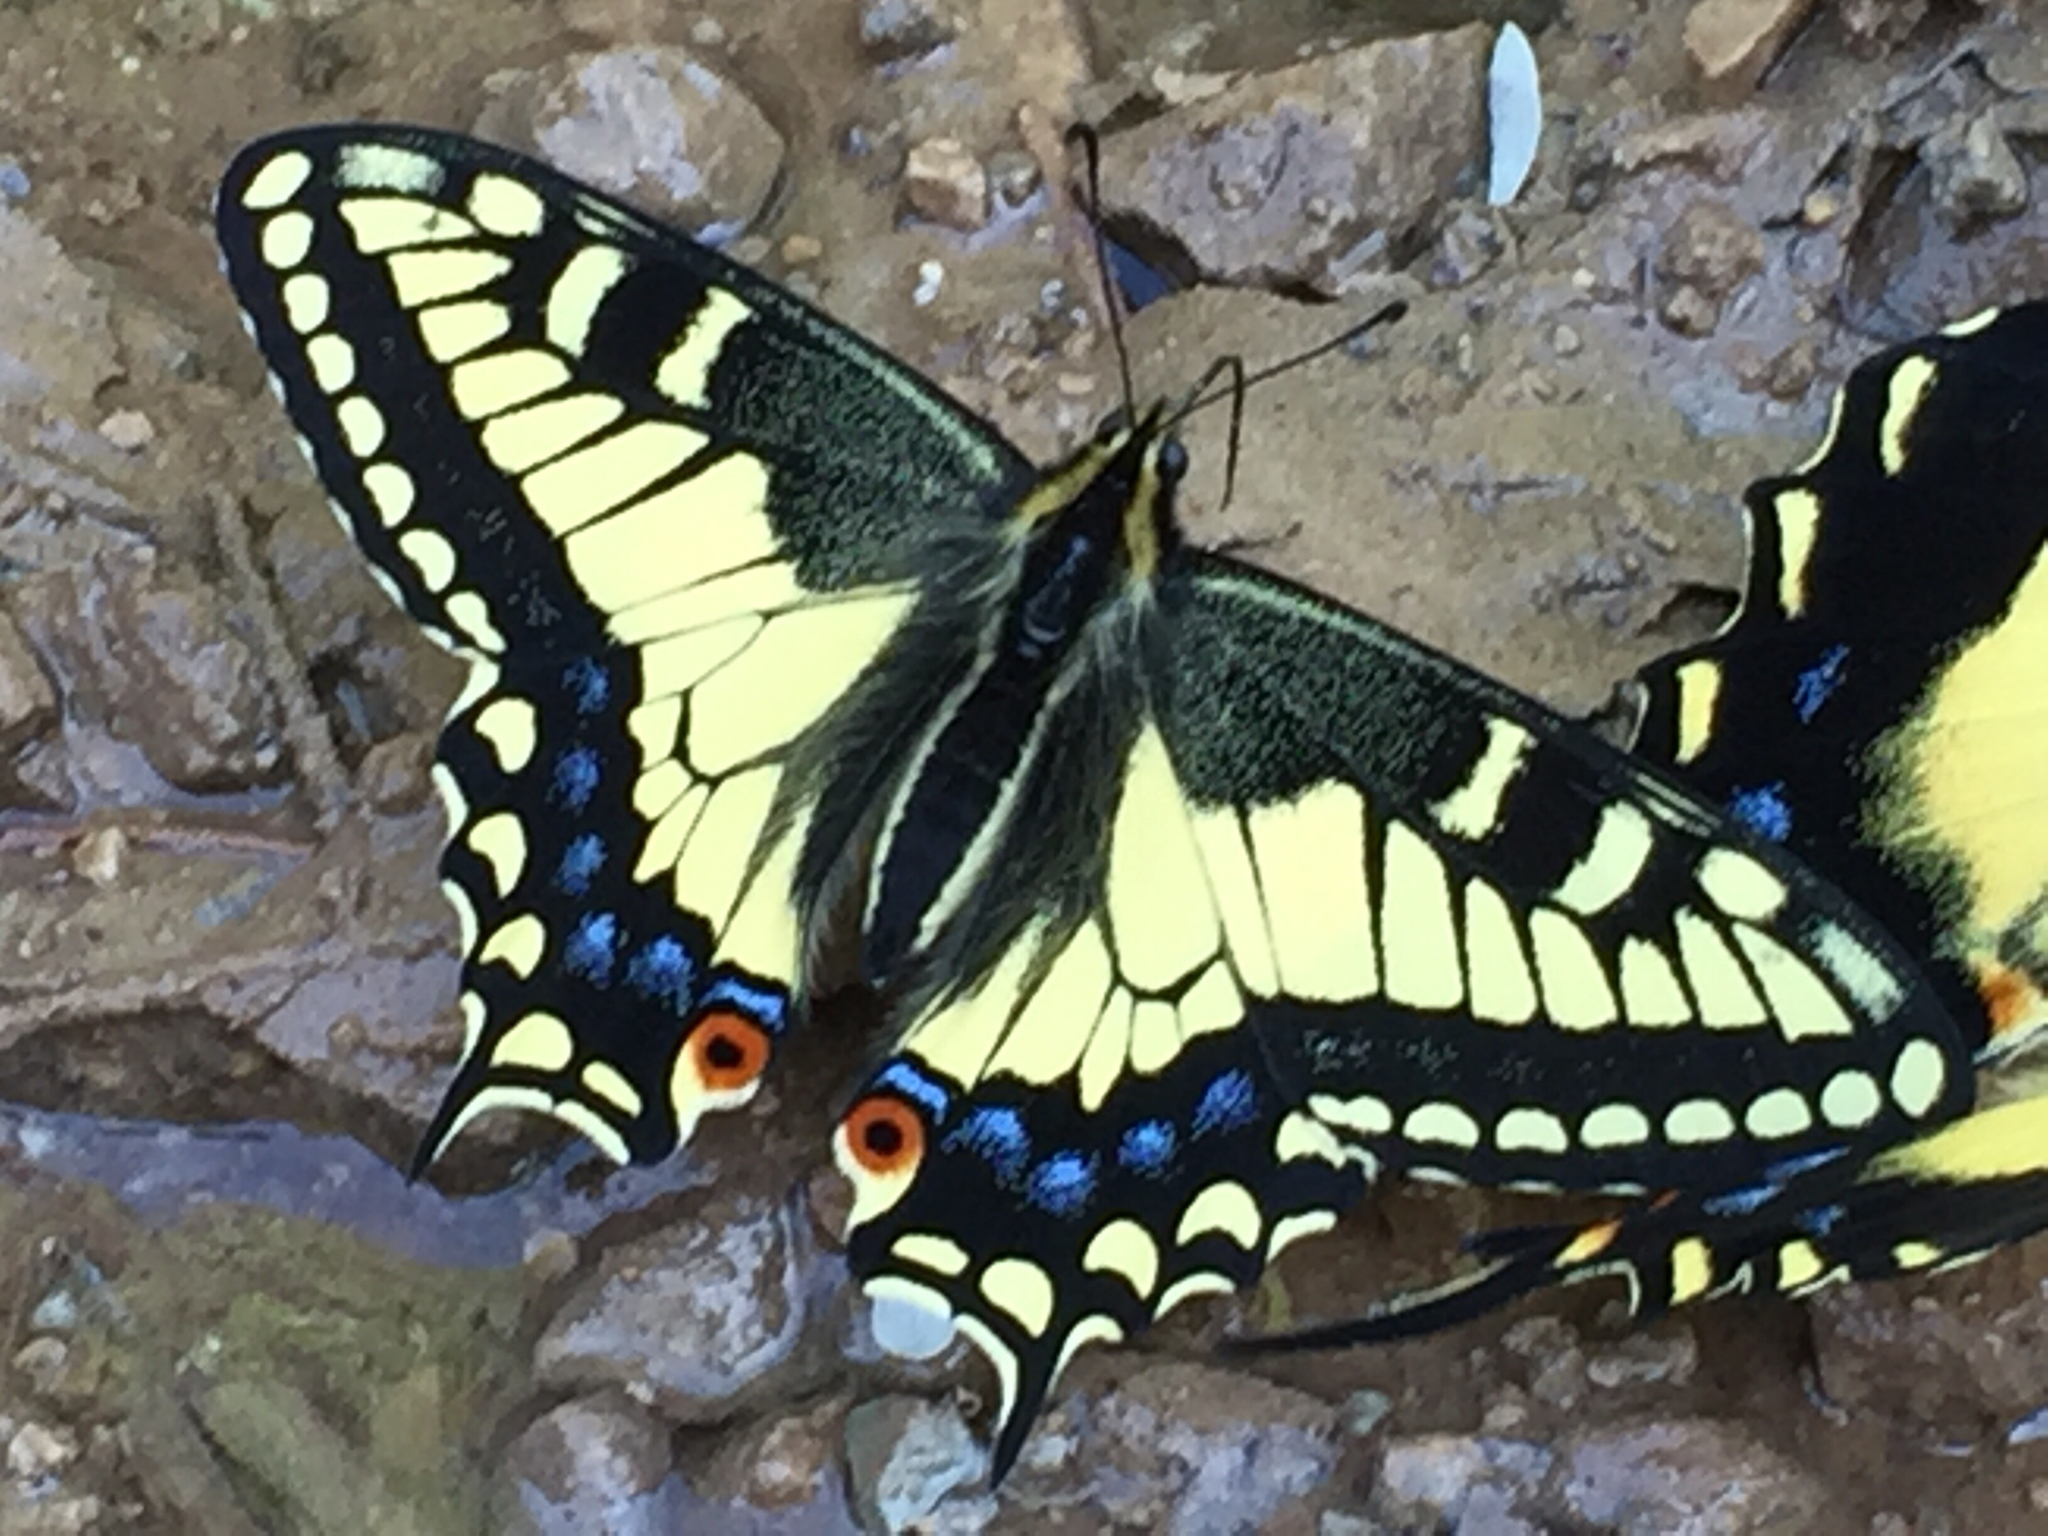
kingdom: Animalia
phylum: Arthropoda
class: Insecta
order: Lepidoptera
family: Papilionidae
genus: Papilio
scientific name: Papilio zelicaon
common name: Anise swallowtail
